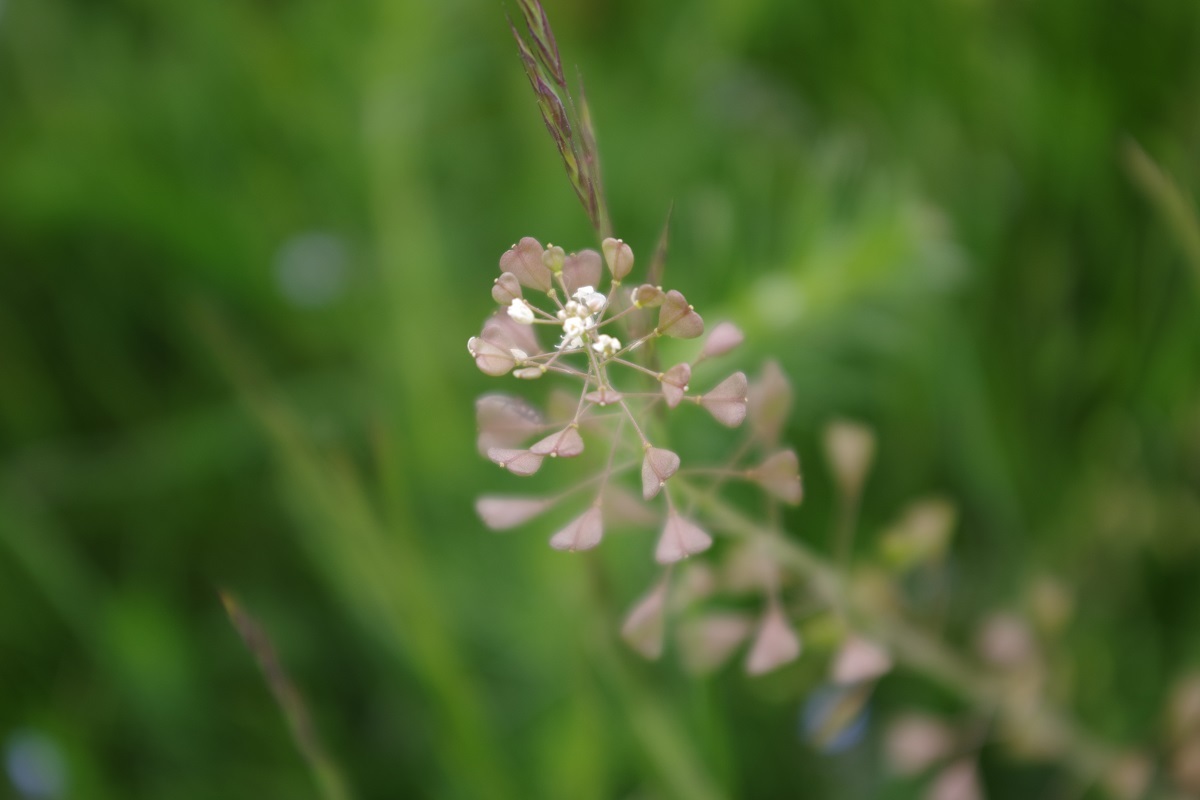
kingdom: Plantae
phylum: Tracheophyta
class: Magnoliopsida
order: Brassicales
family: Brassicaceae
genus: Capsella
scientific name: Capsella bursa-pastoris
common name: Shepherd's purse
